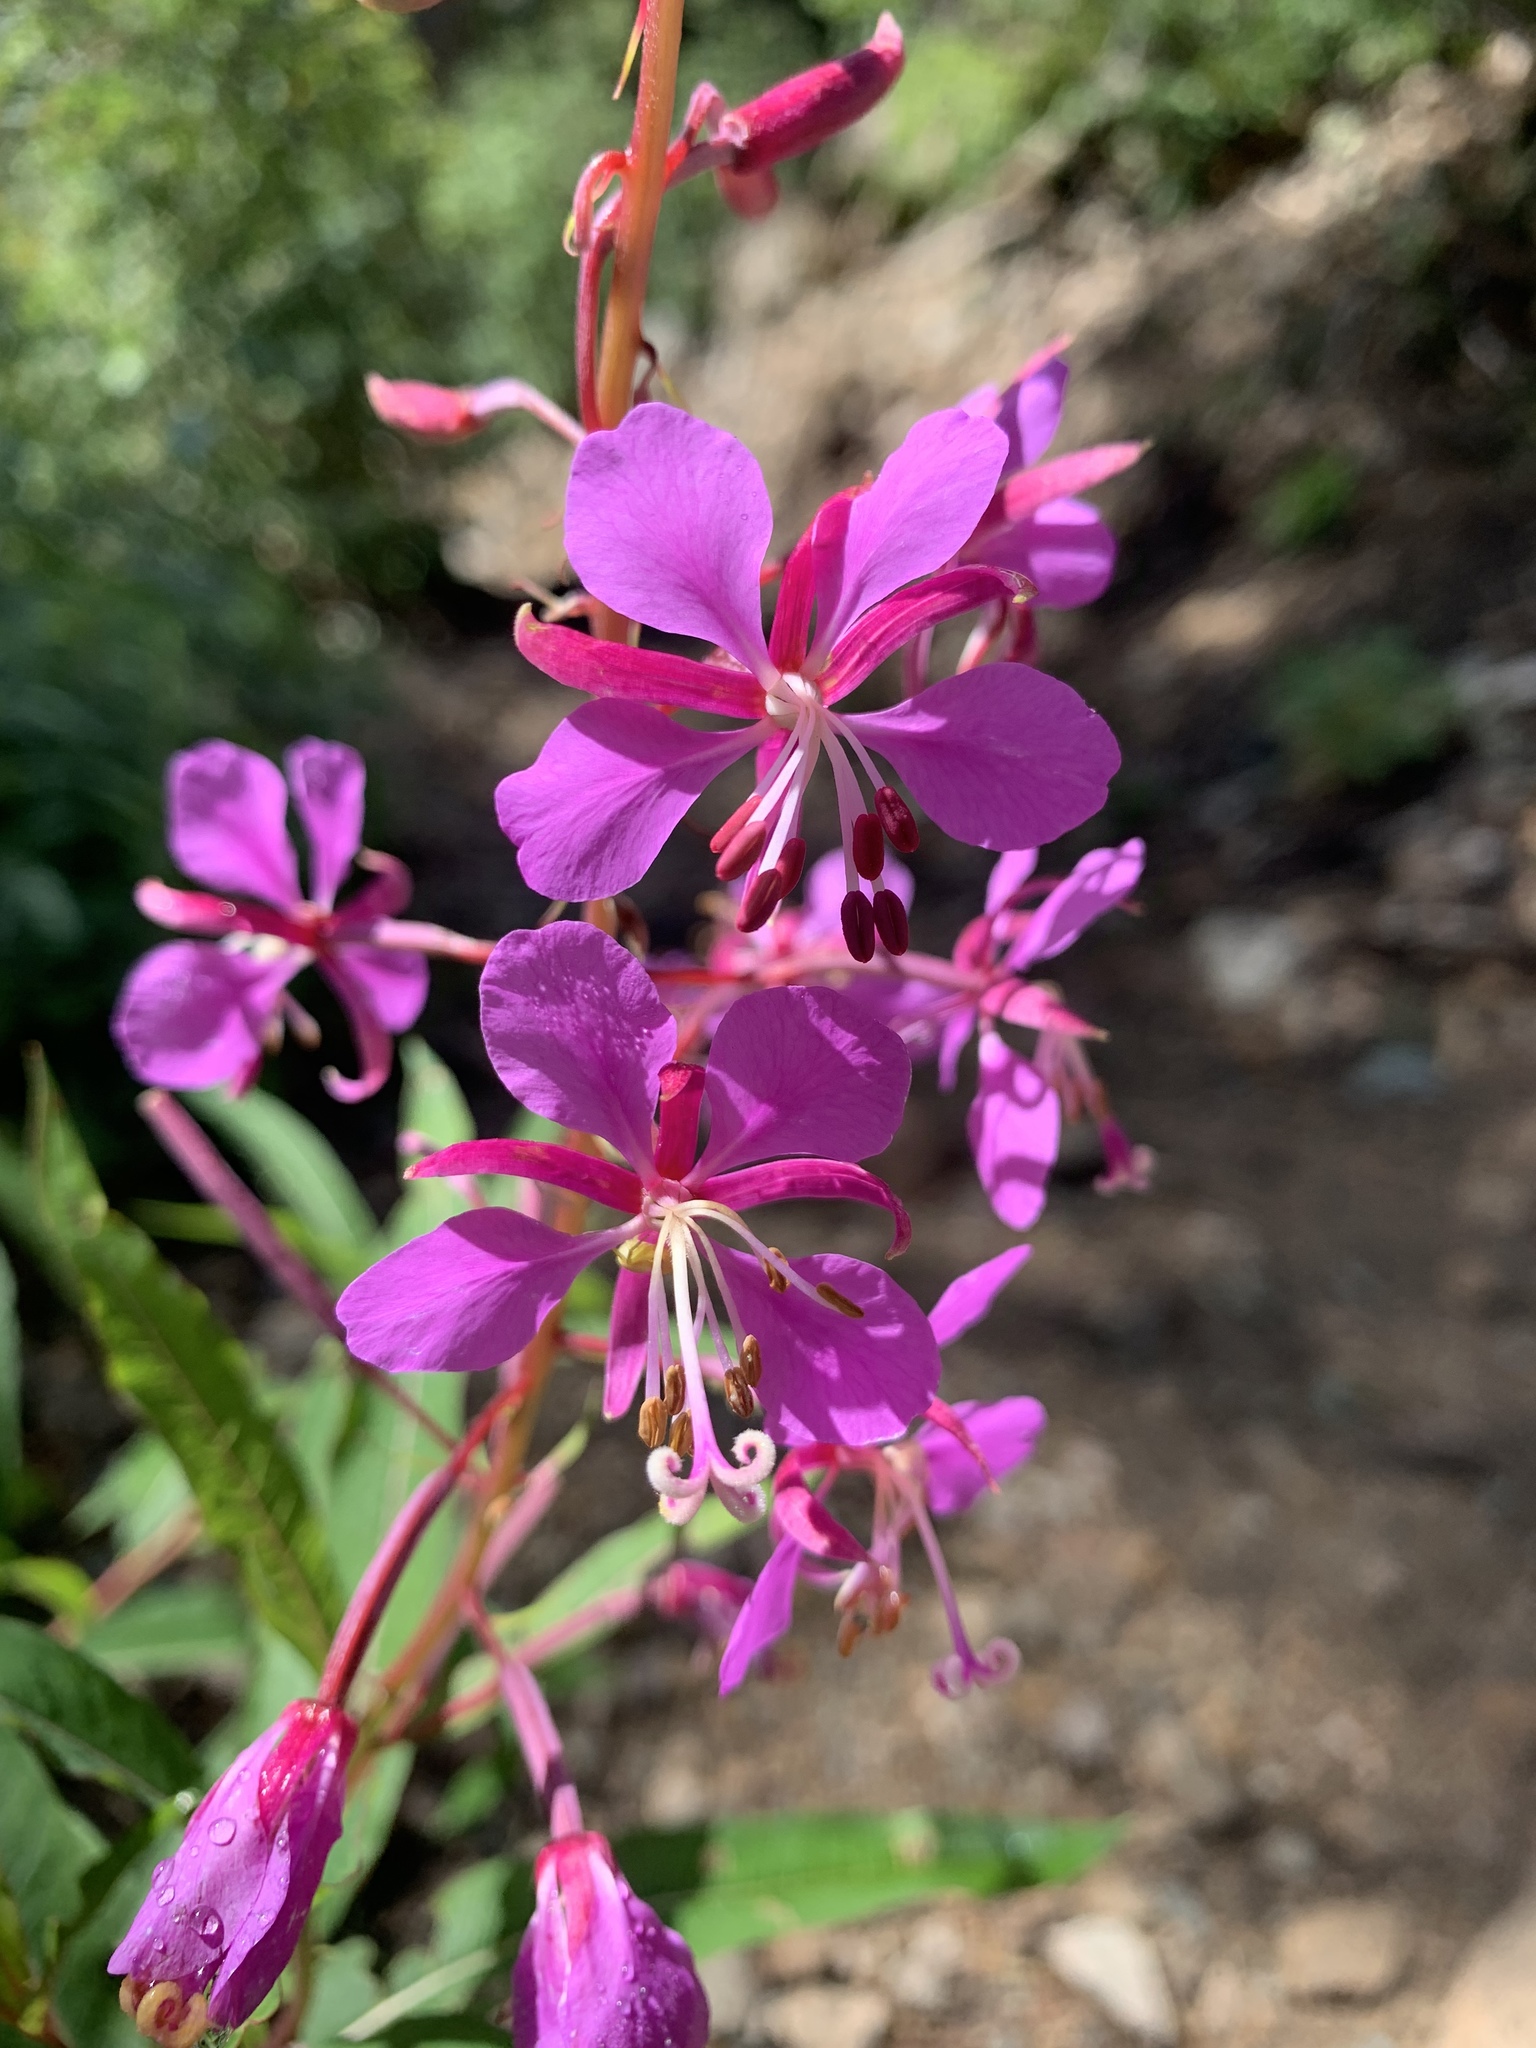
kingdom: Plantae
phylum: Tracheophyta
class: Magnoliopsida
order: Myrtales
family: Onagraceae
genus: Chamaenerion
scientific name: Chamaenerion angustifolium
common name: Fireweed
